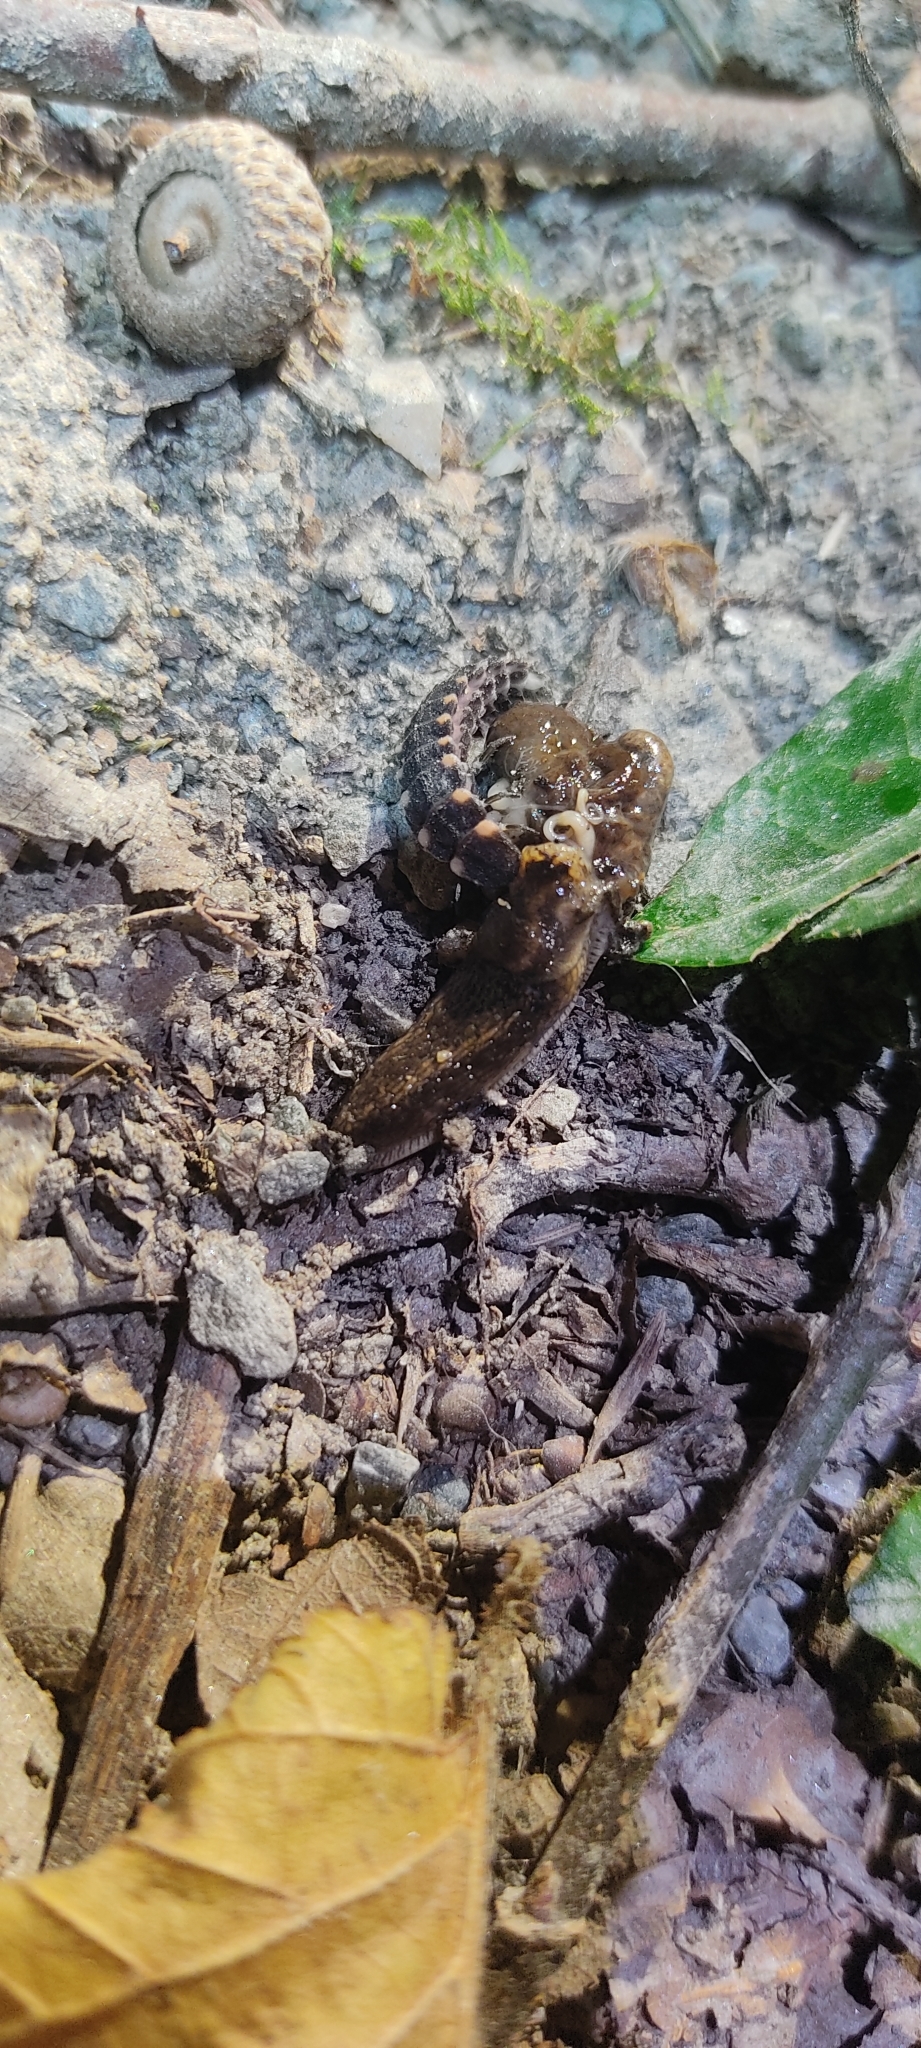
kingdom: Animalia
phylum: Arthropoda
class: Insecta
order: Coleoptera
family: Lampyridae
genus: Lampyris
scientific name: Lampyris noctiluca
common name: Glow-worm
